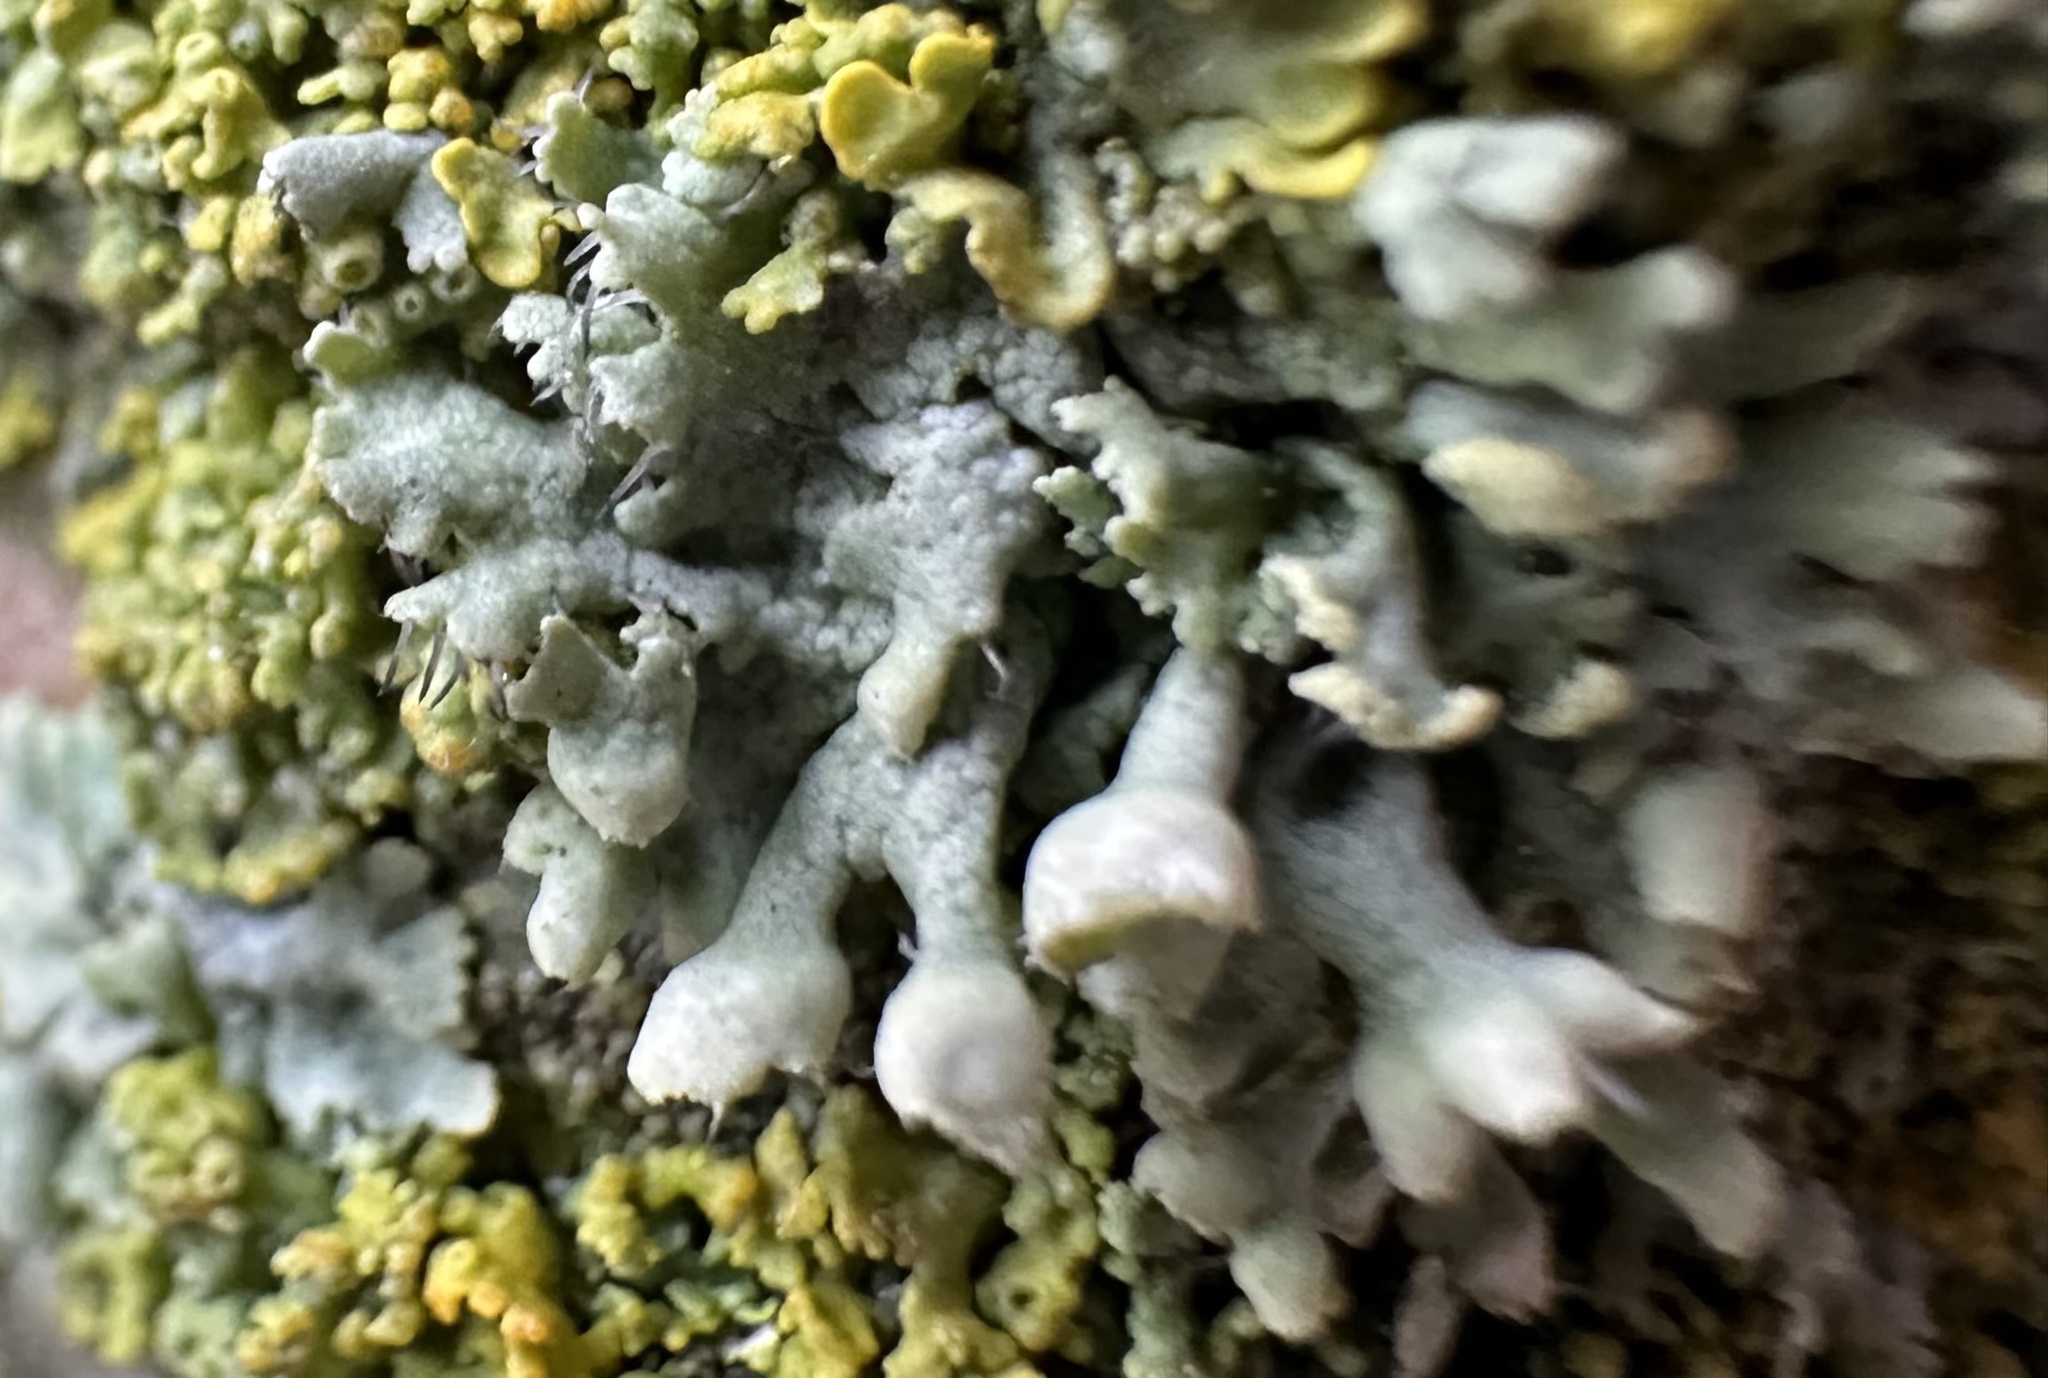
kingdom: Fungi
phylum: Ascomycota
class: Lecanoromycetes
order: Caliciales
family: Physciaceae
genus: Physcia
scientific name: Physcia adscendens
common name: Hooded rosette lichen
